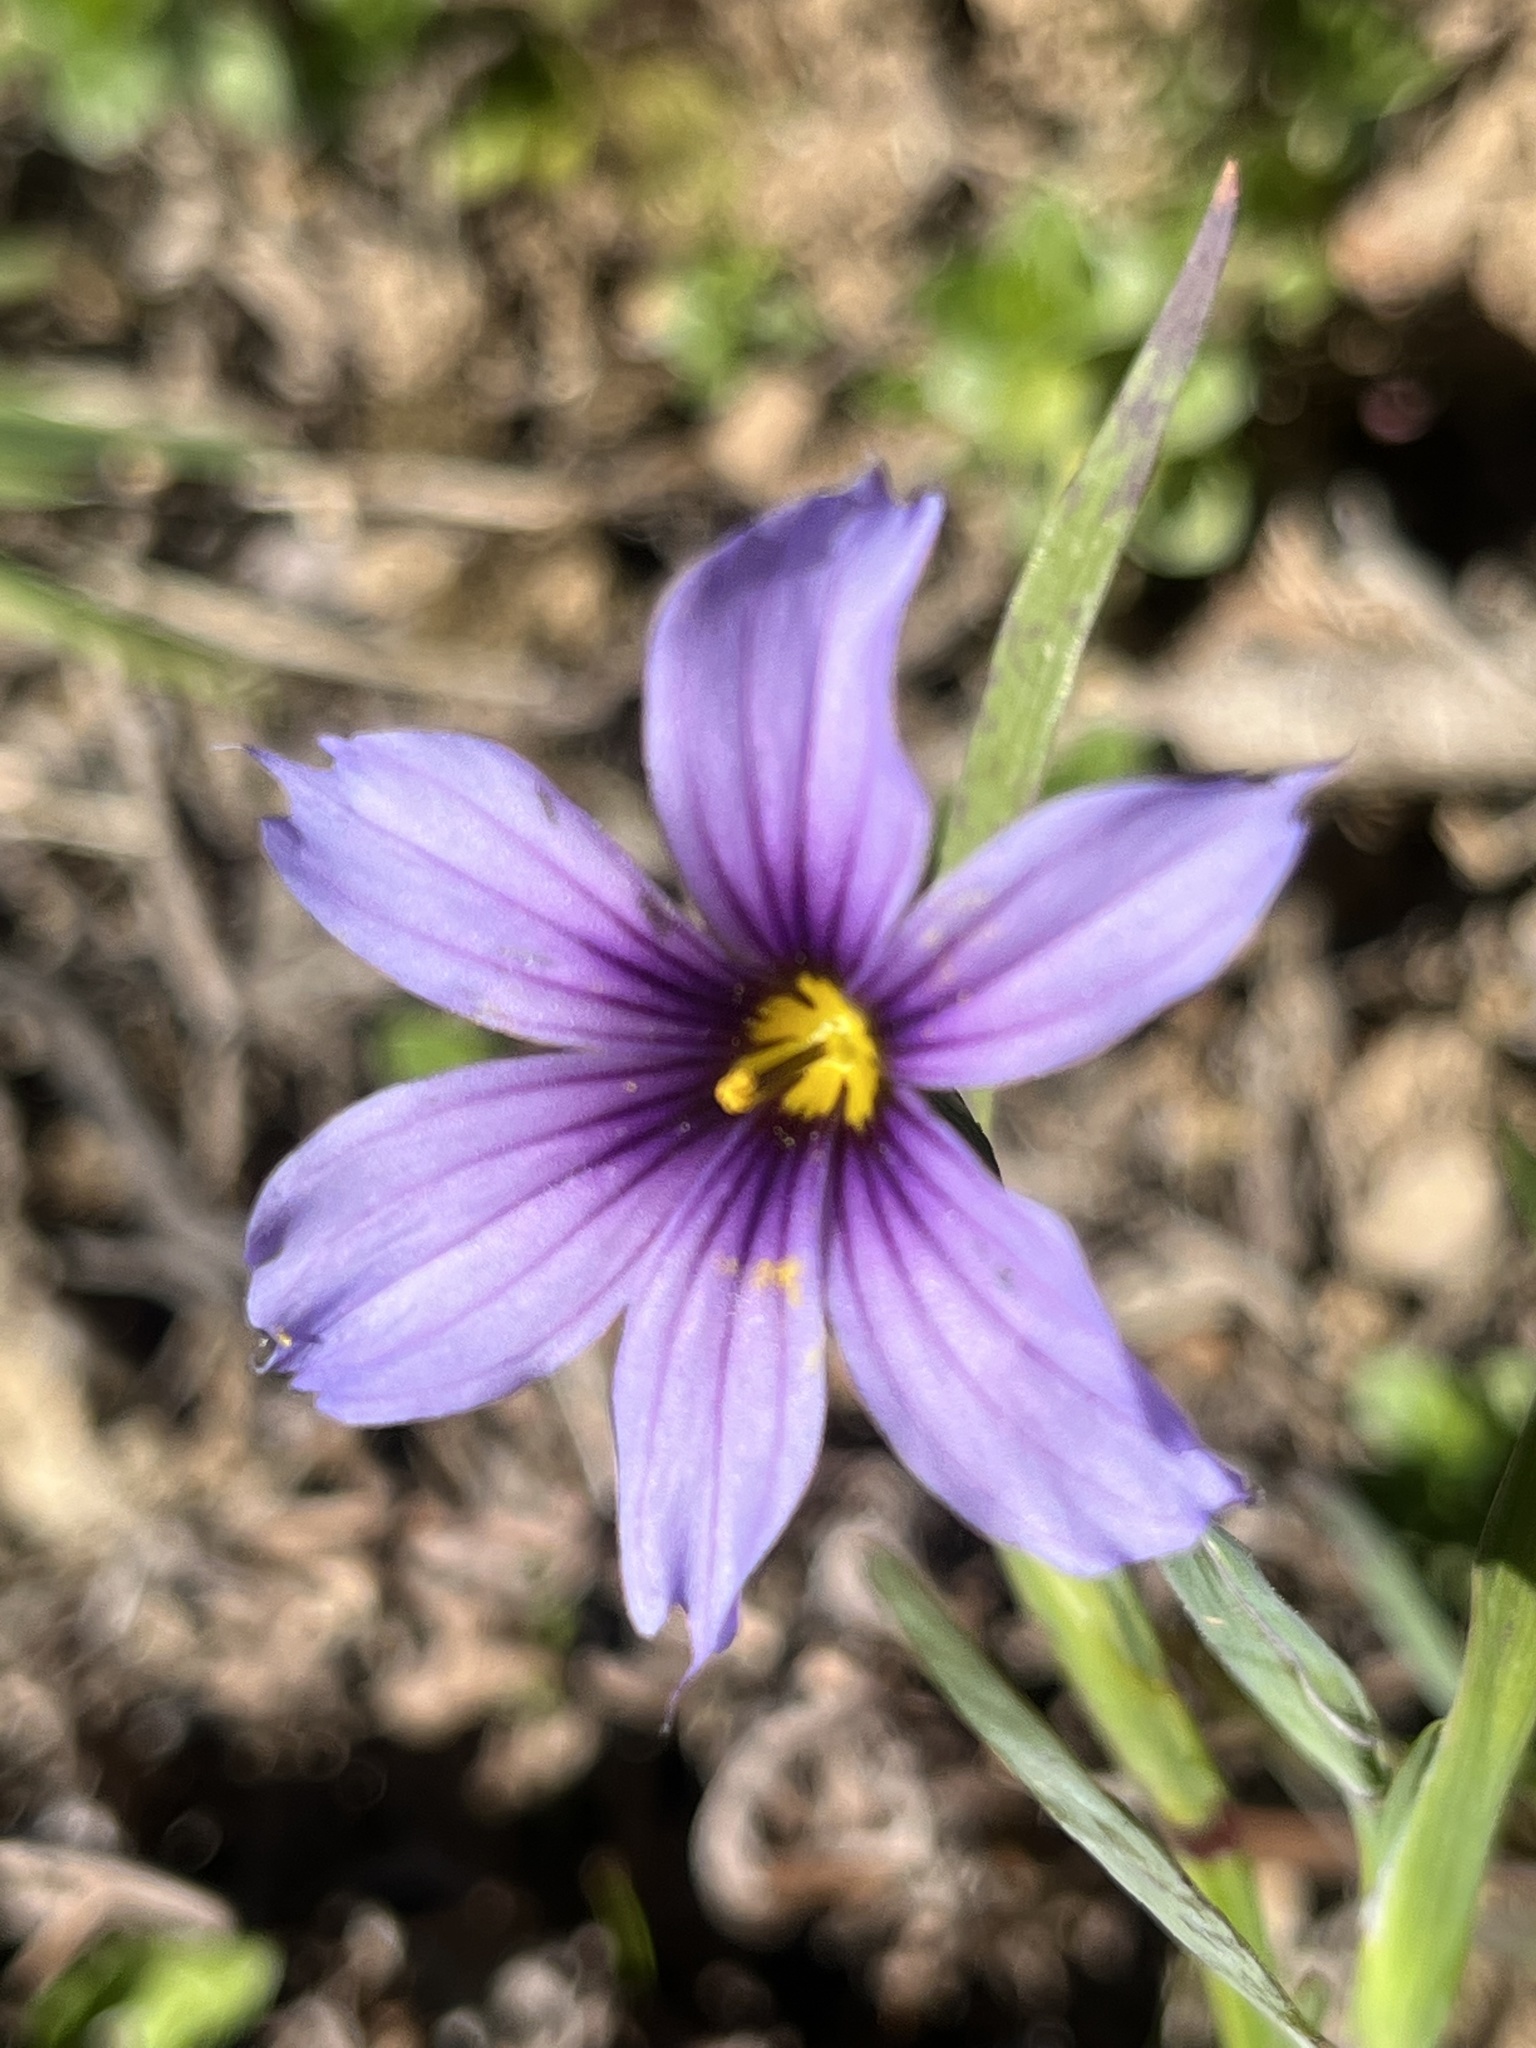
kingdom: Plantae
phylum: Tracheophyta
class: Liliopsida
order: Asparagales
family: Iridaceae
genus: Sisyrinchium
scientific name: Sisyrinchium bellum
